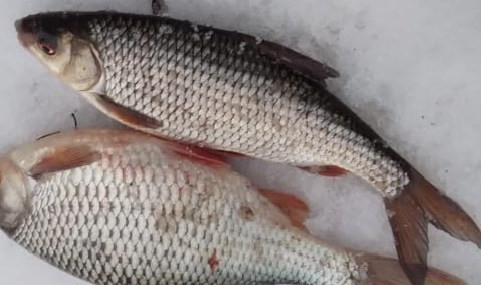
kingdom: Animalia
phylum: Chordata
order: Cypriniformes
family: Cyprinidae
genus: Rutilus
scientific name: Rutilus rutilus
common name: Roach
